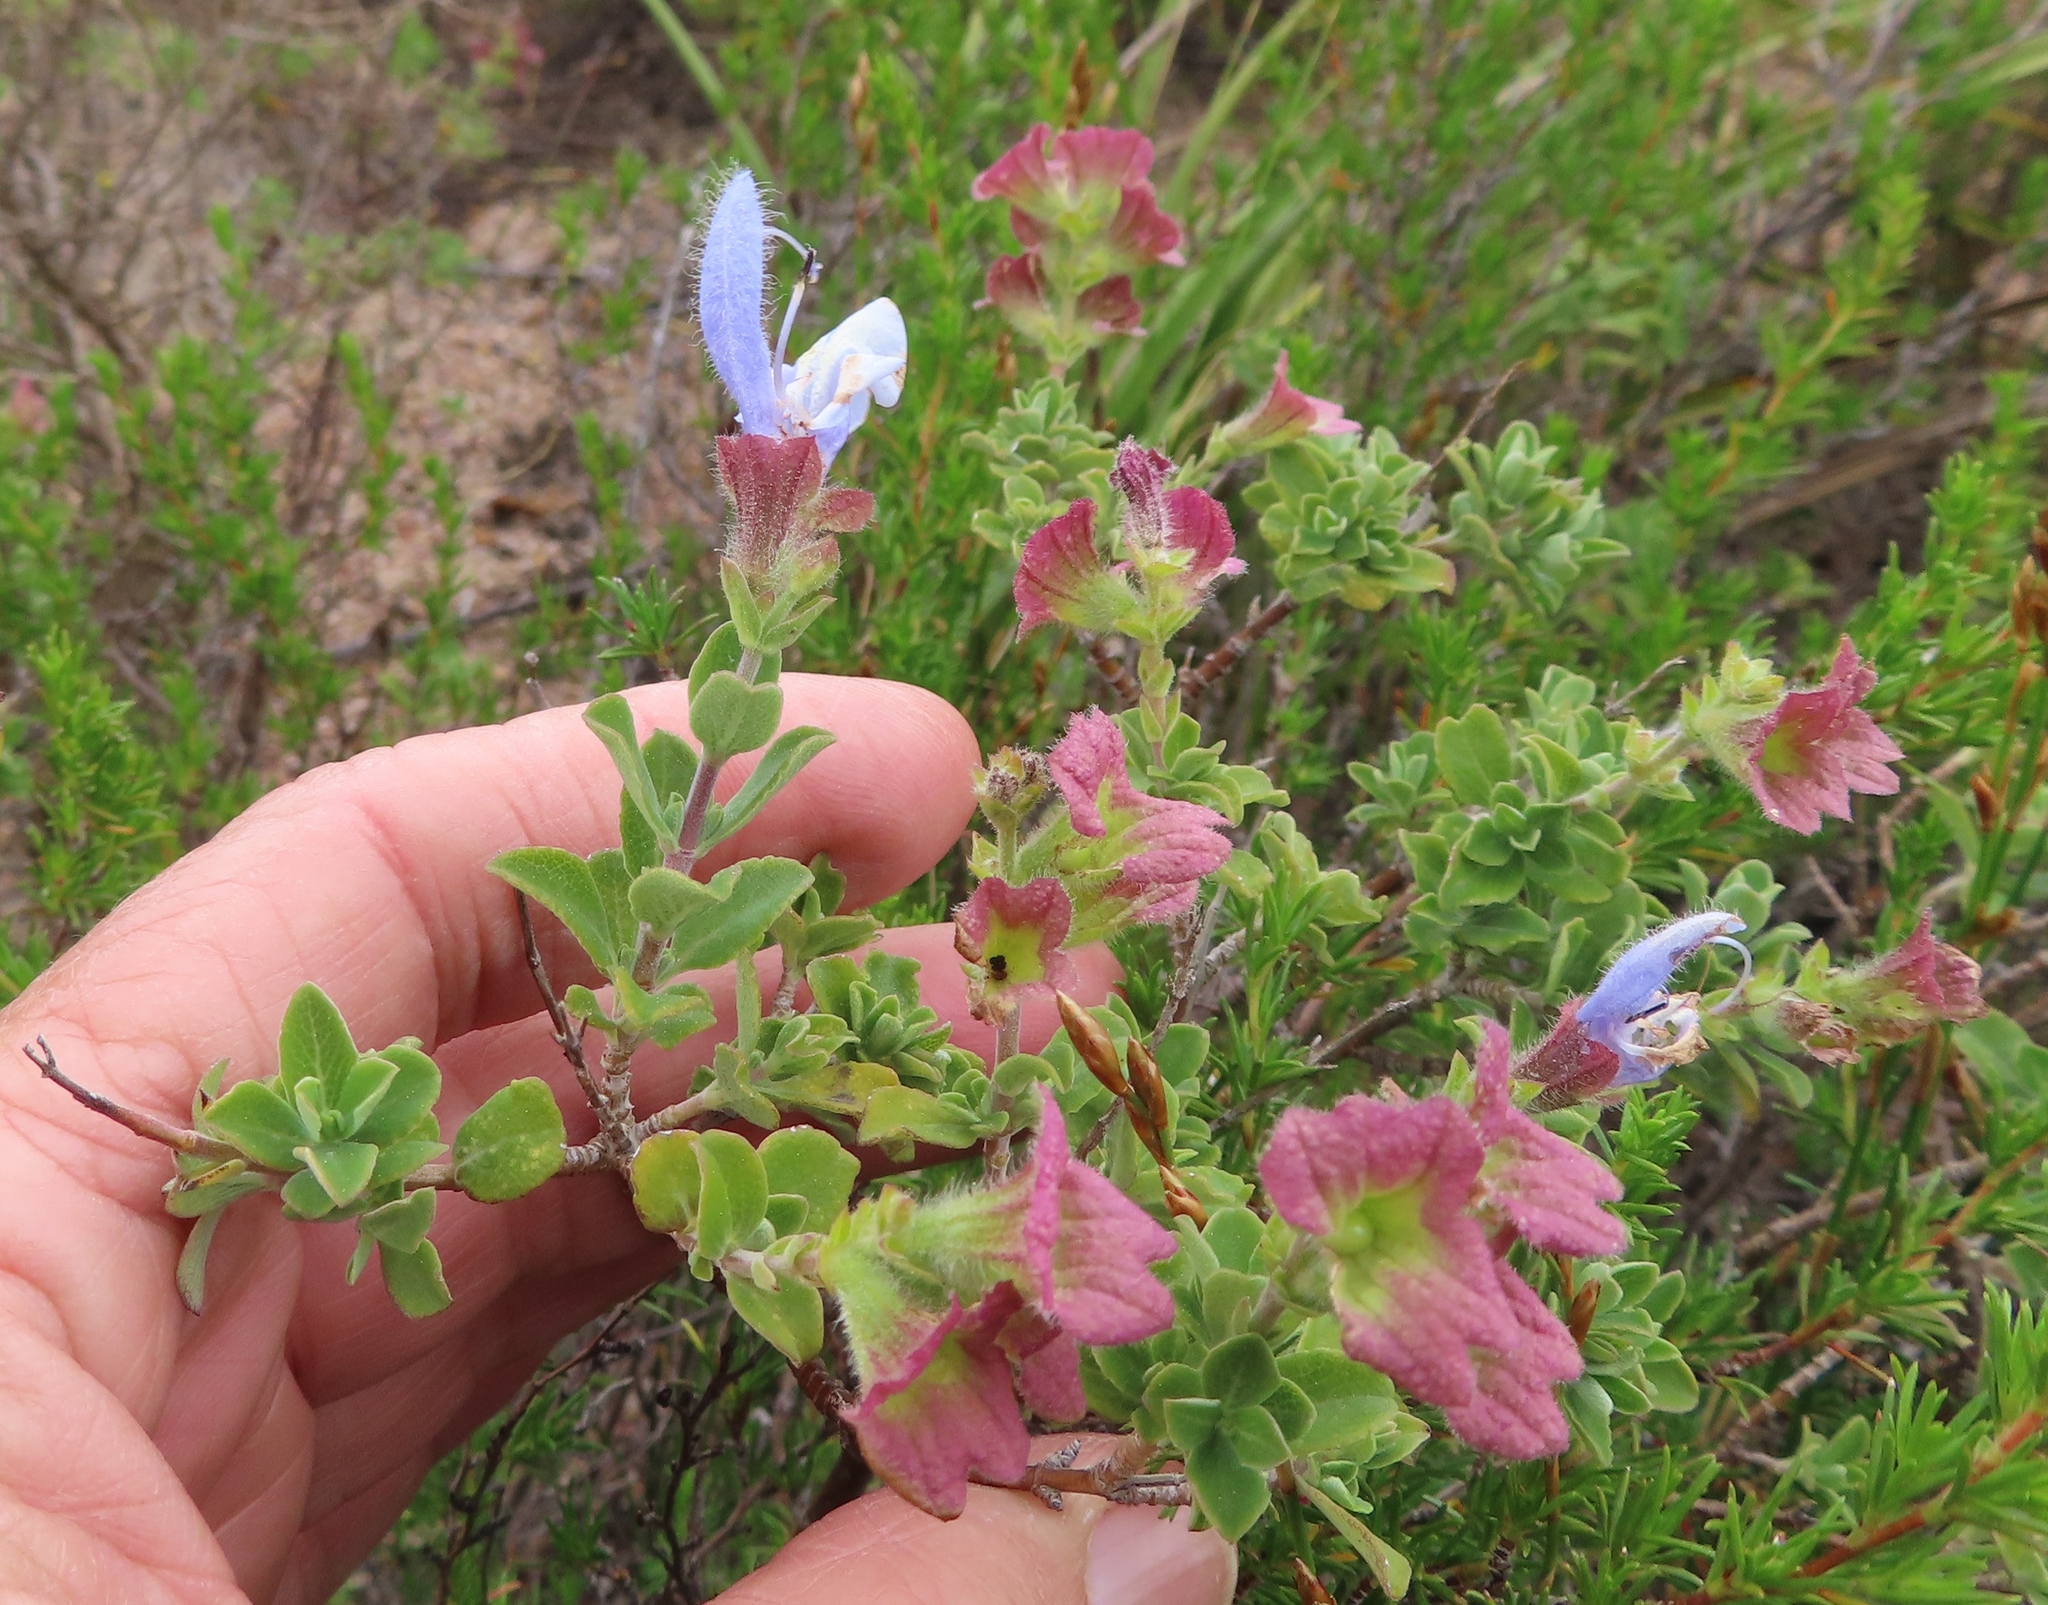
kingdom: Plantae
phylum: Tracheophyta
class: Magnoliopsida
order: Lamiales
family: Lamiaceae
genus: Salvia
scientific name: Salvia africana
